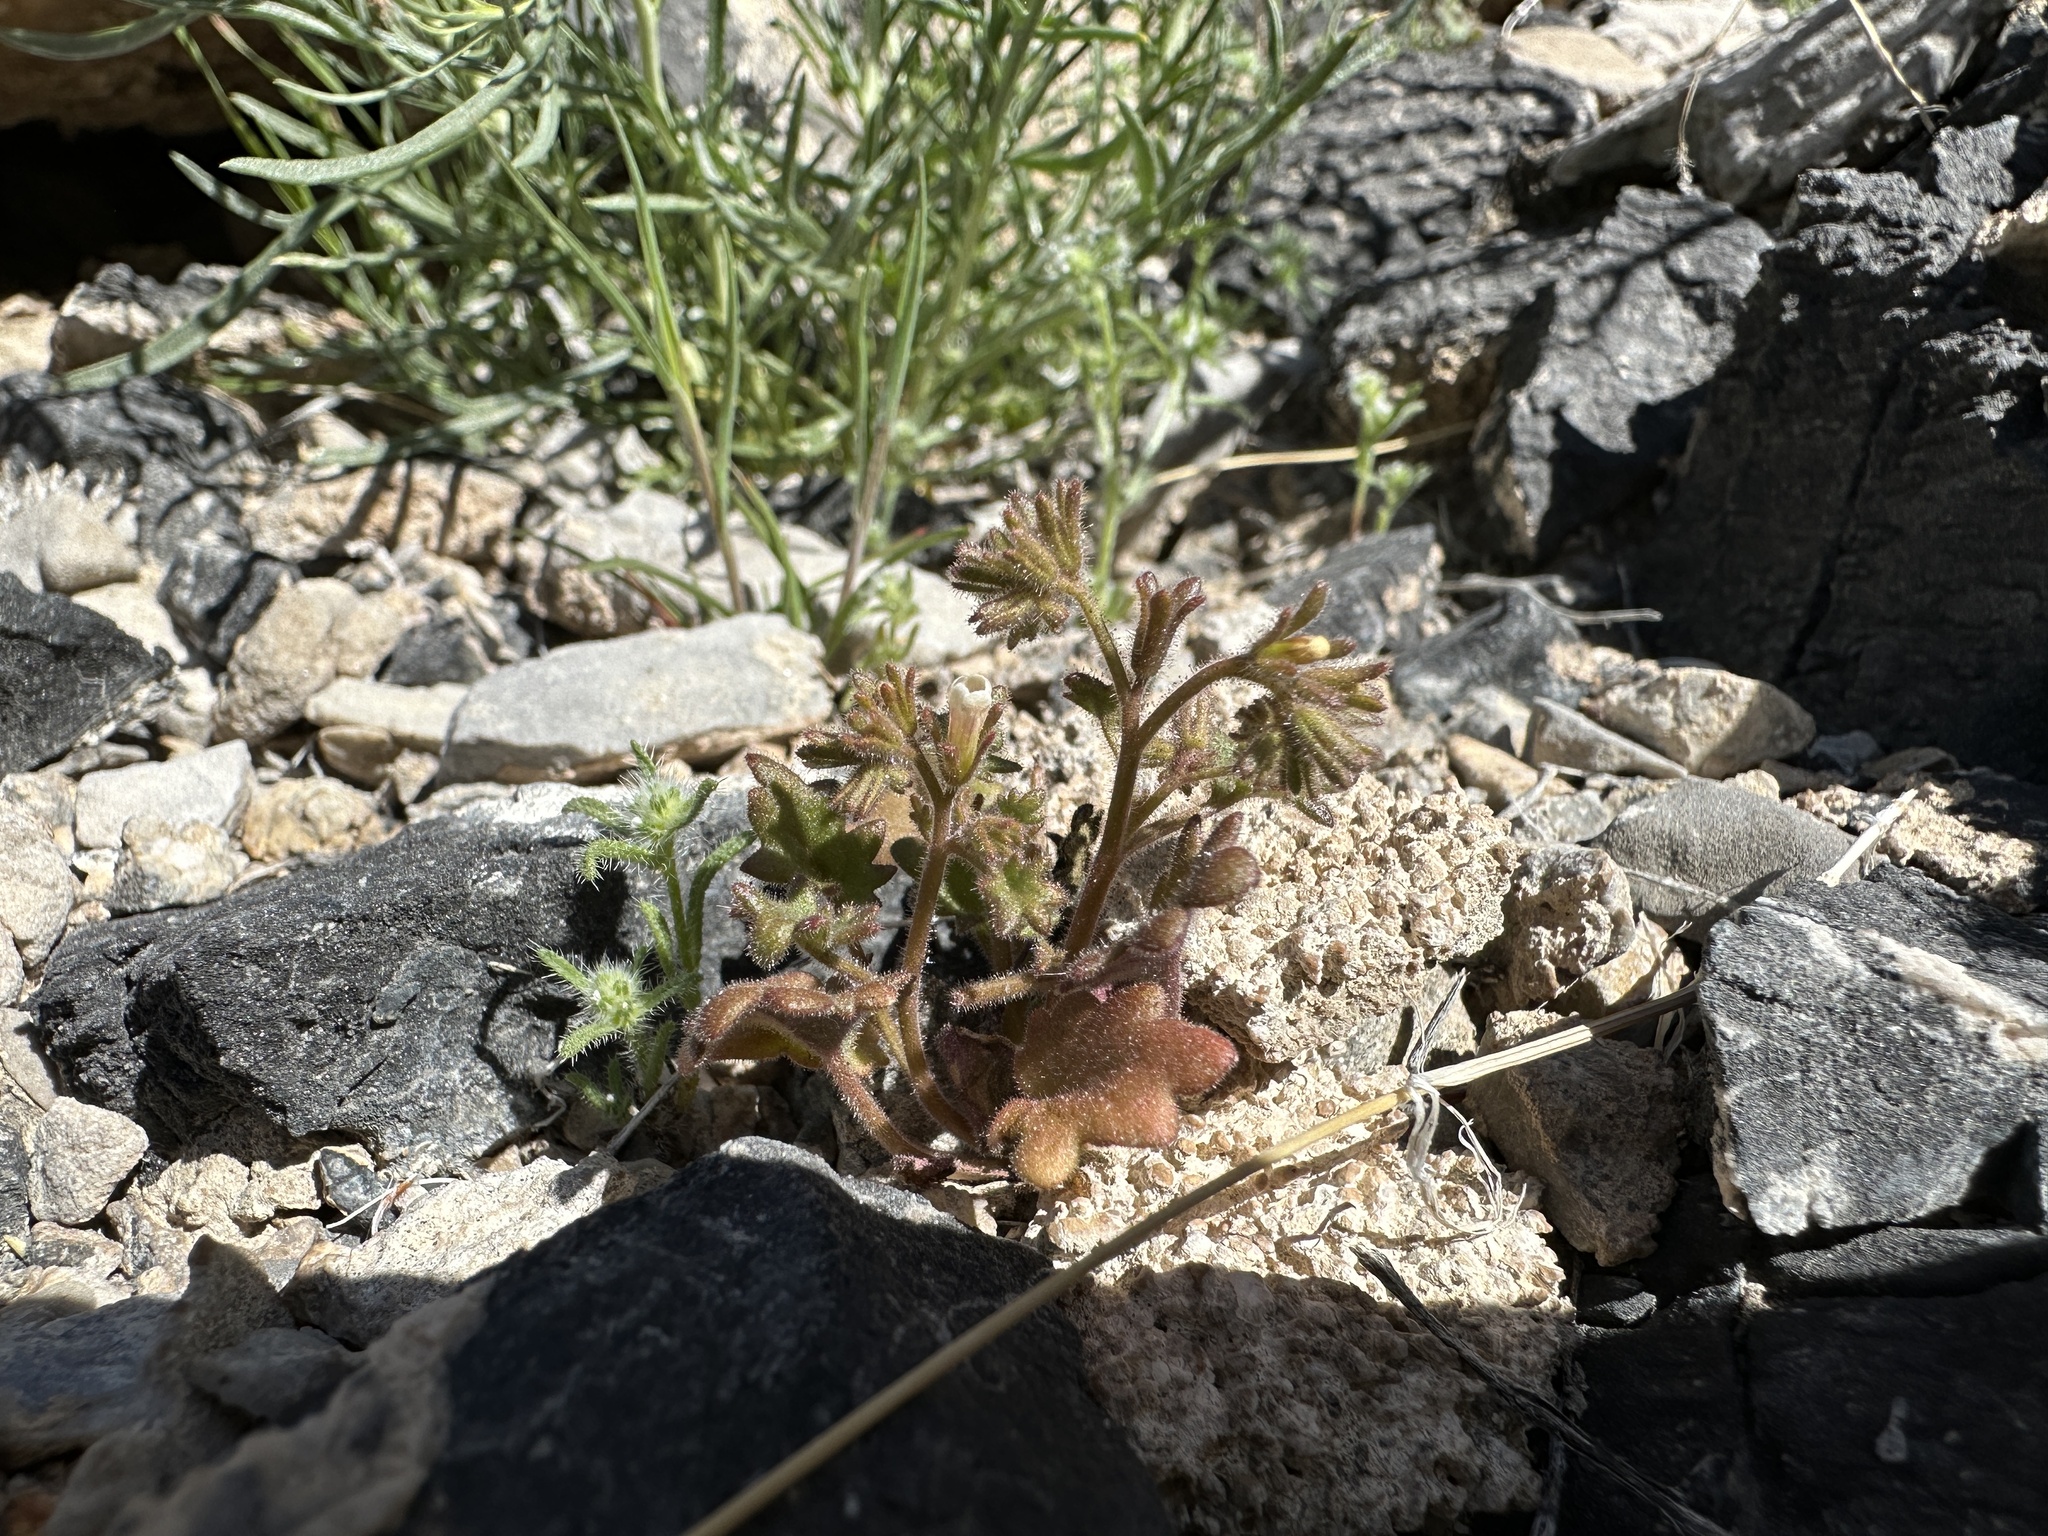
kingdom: Plantae
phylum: Tracheophyta
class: Magnoliopsida
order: Boraginales
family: Hydrophyllaceae
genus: Phacelia
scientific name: Phacelia rotundifolia
